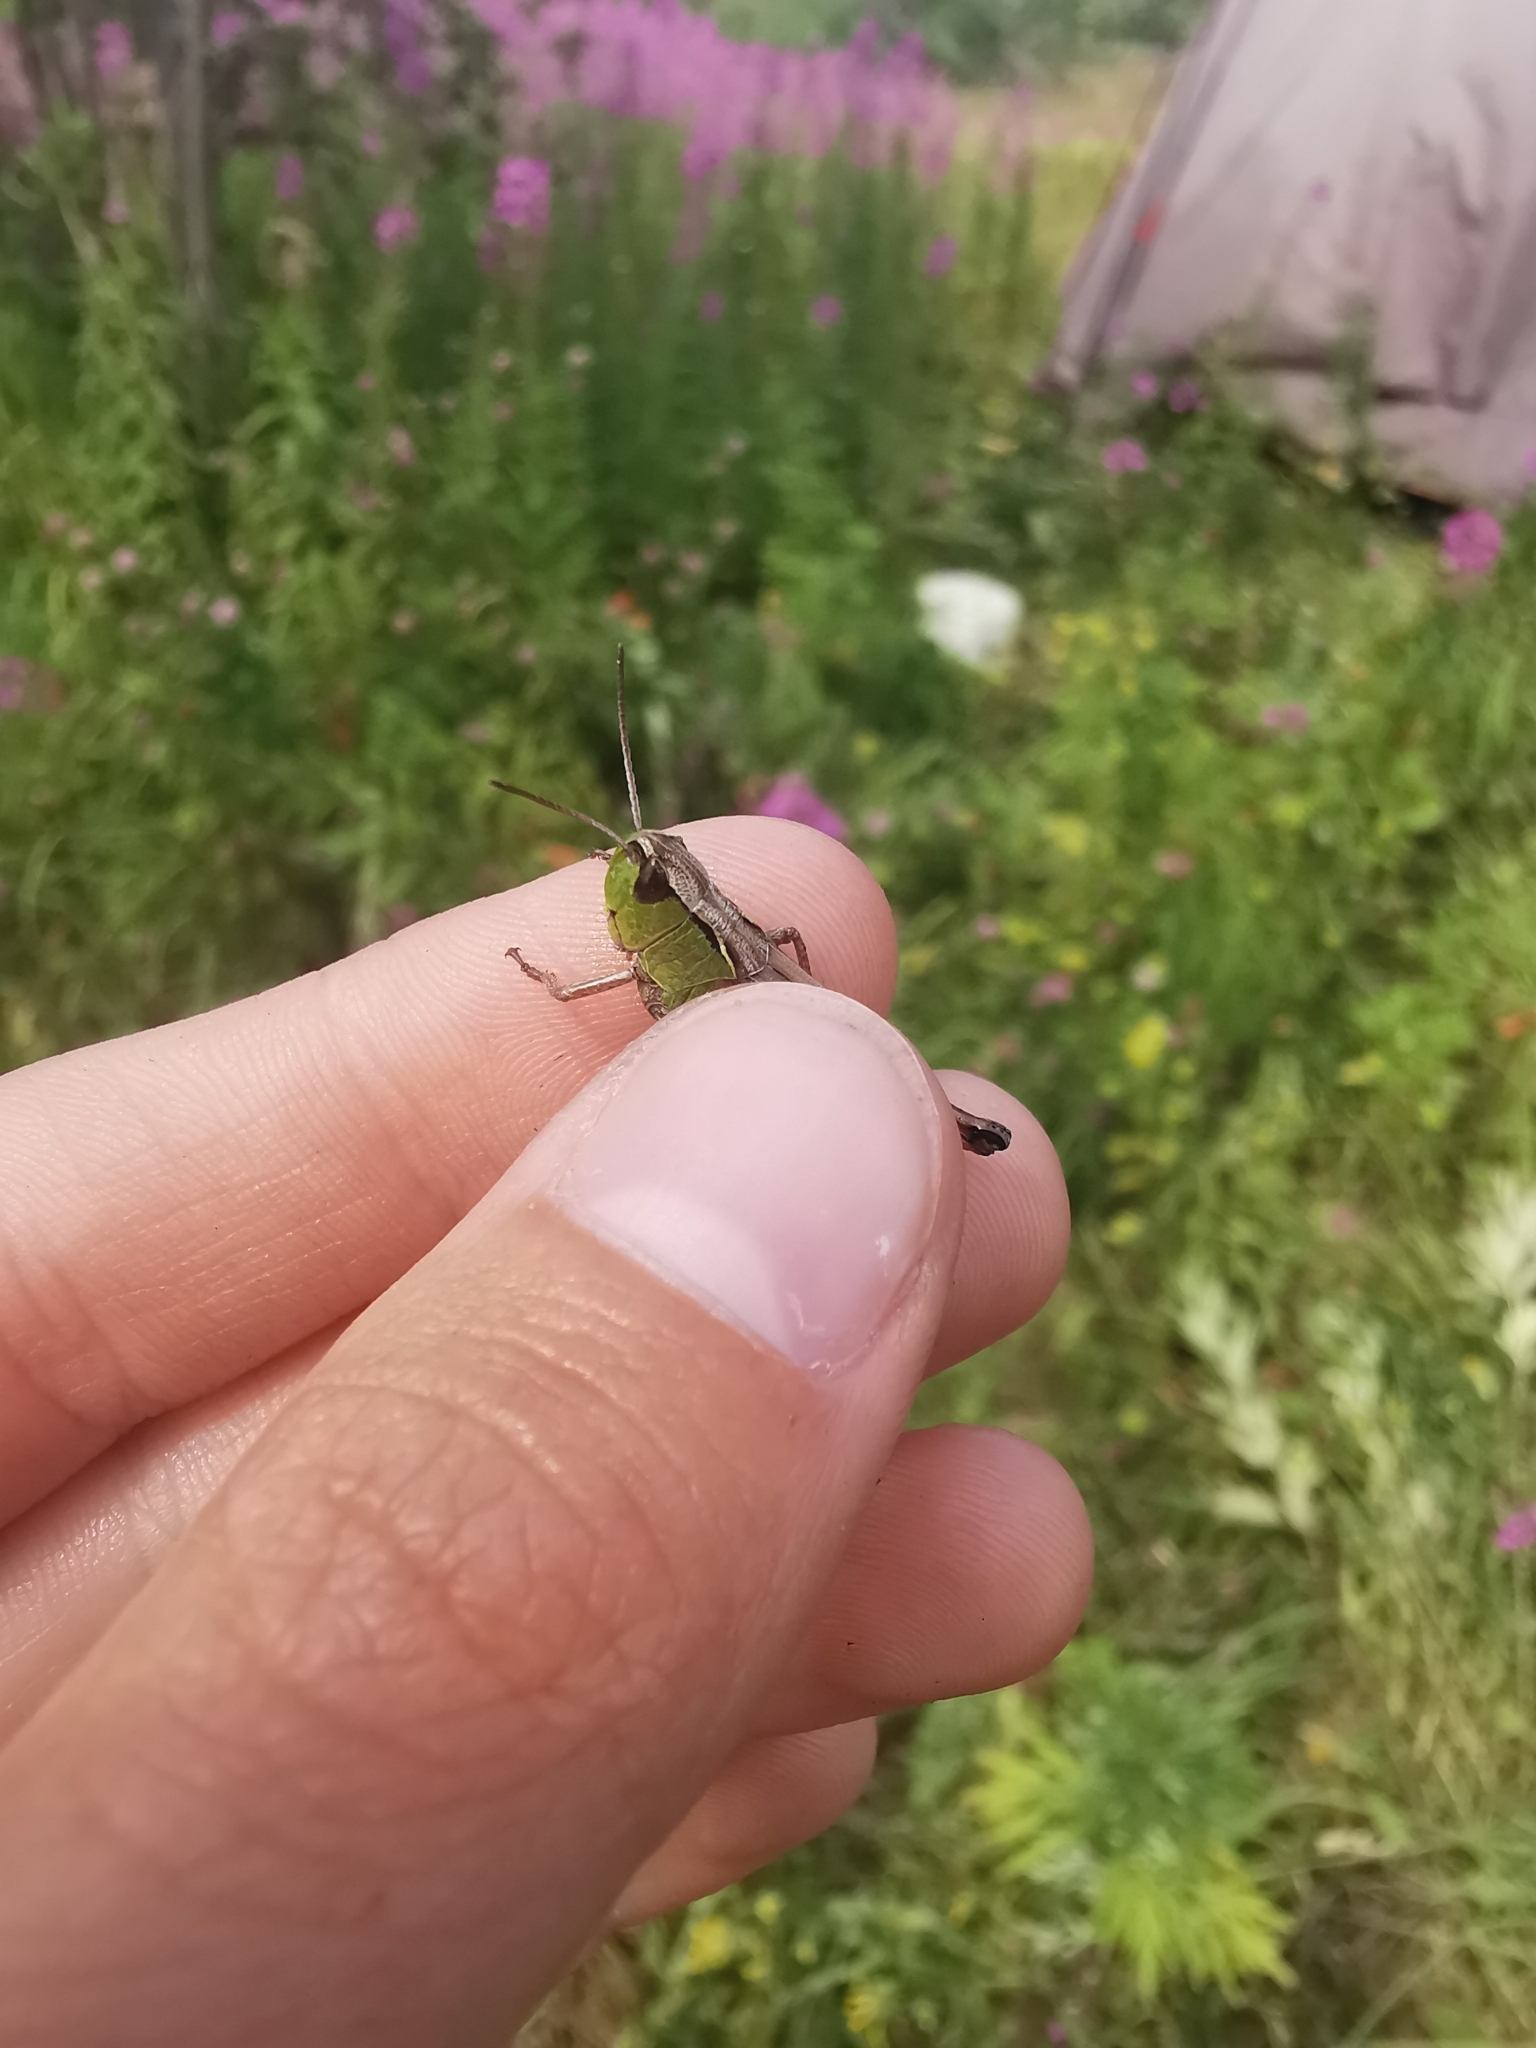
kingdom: Animalia
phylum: Arthropoda
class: Insecta
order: Orthoptera
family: Acrididae
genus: Pseudochorthippus
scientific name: Pseudochorthippus montanus
